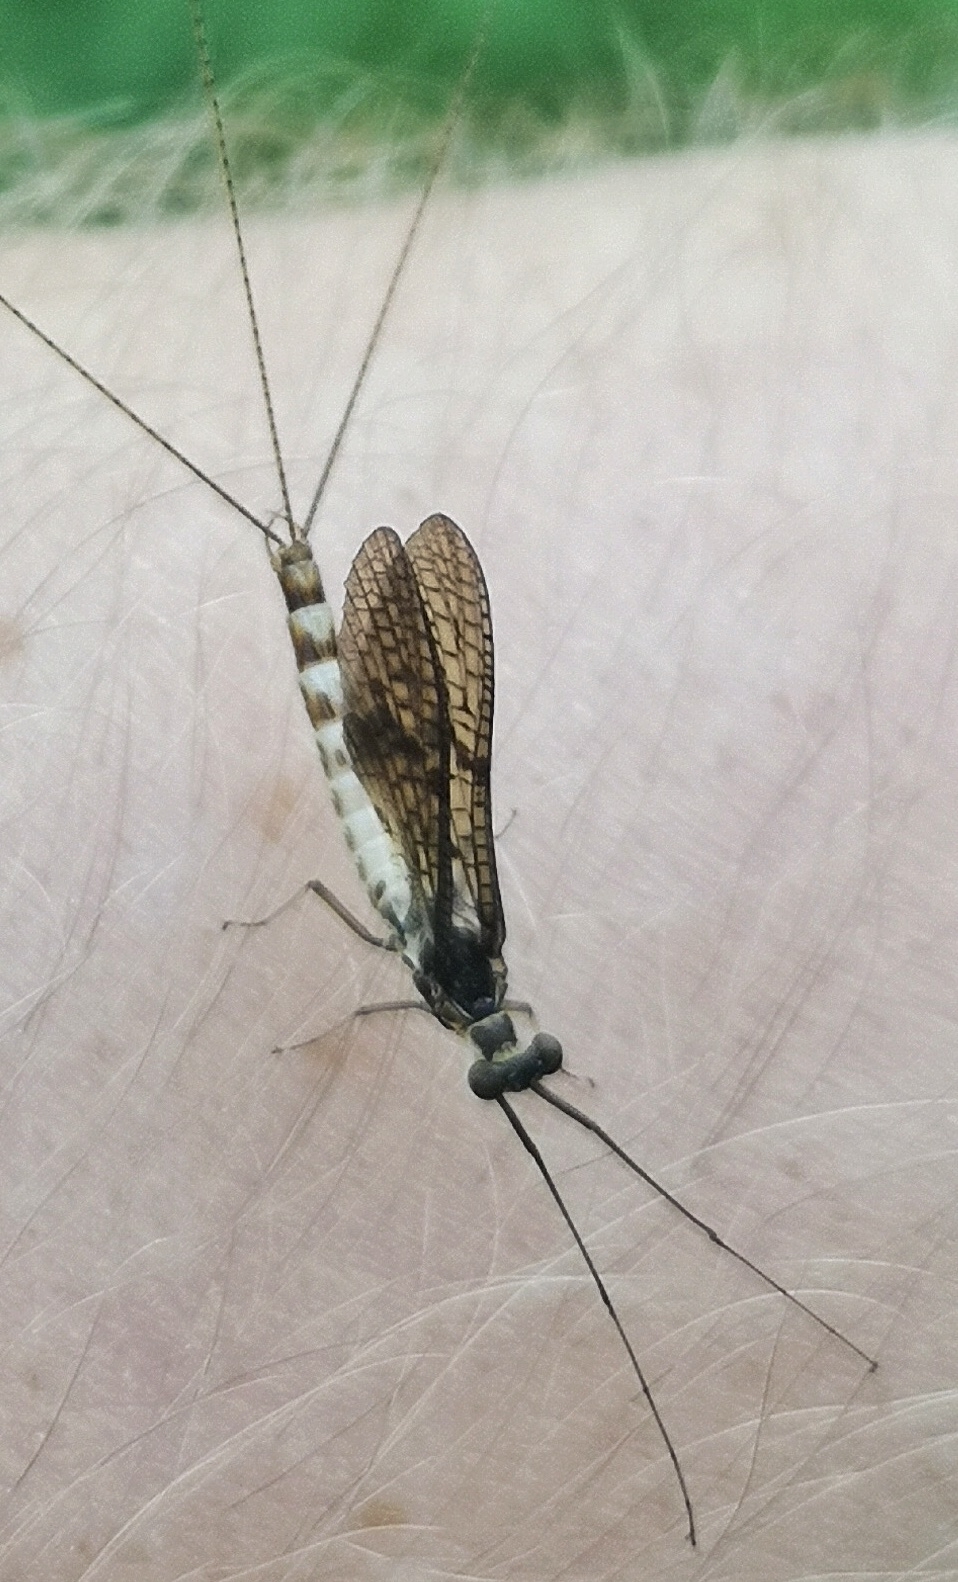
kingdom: Animalia
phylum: Arthropoda
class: Insecta
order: Ephemeroptera
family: Ephemeridae
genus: Ephemera
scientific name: Ephemera danica
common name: Green dun
